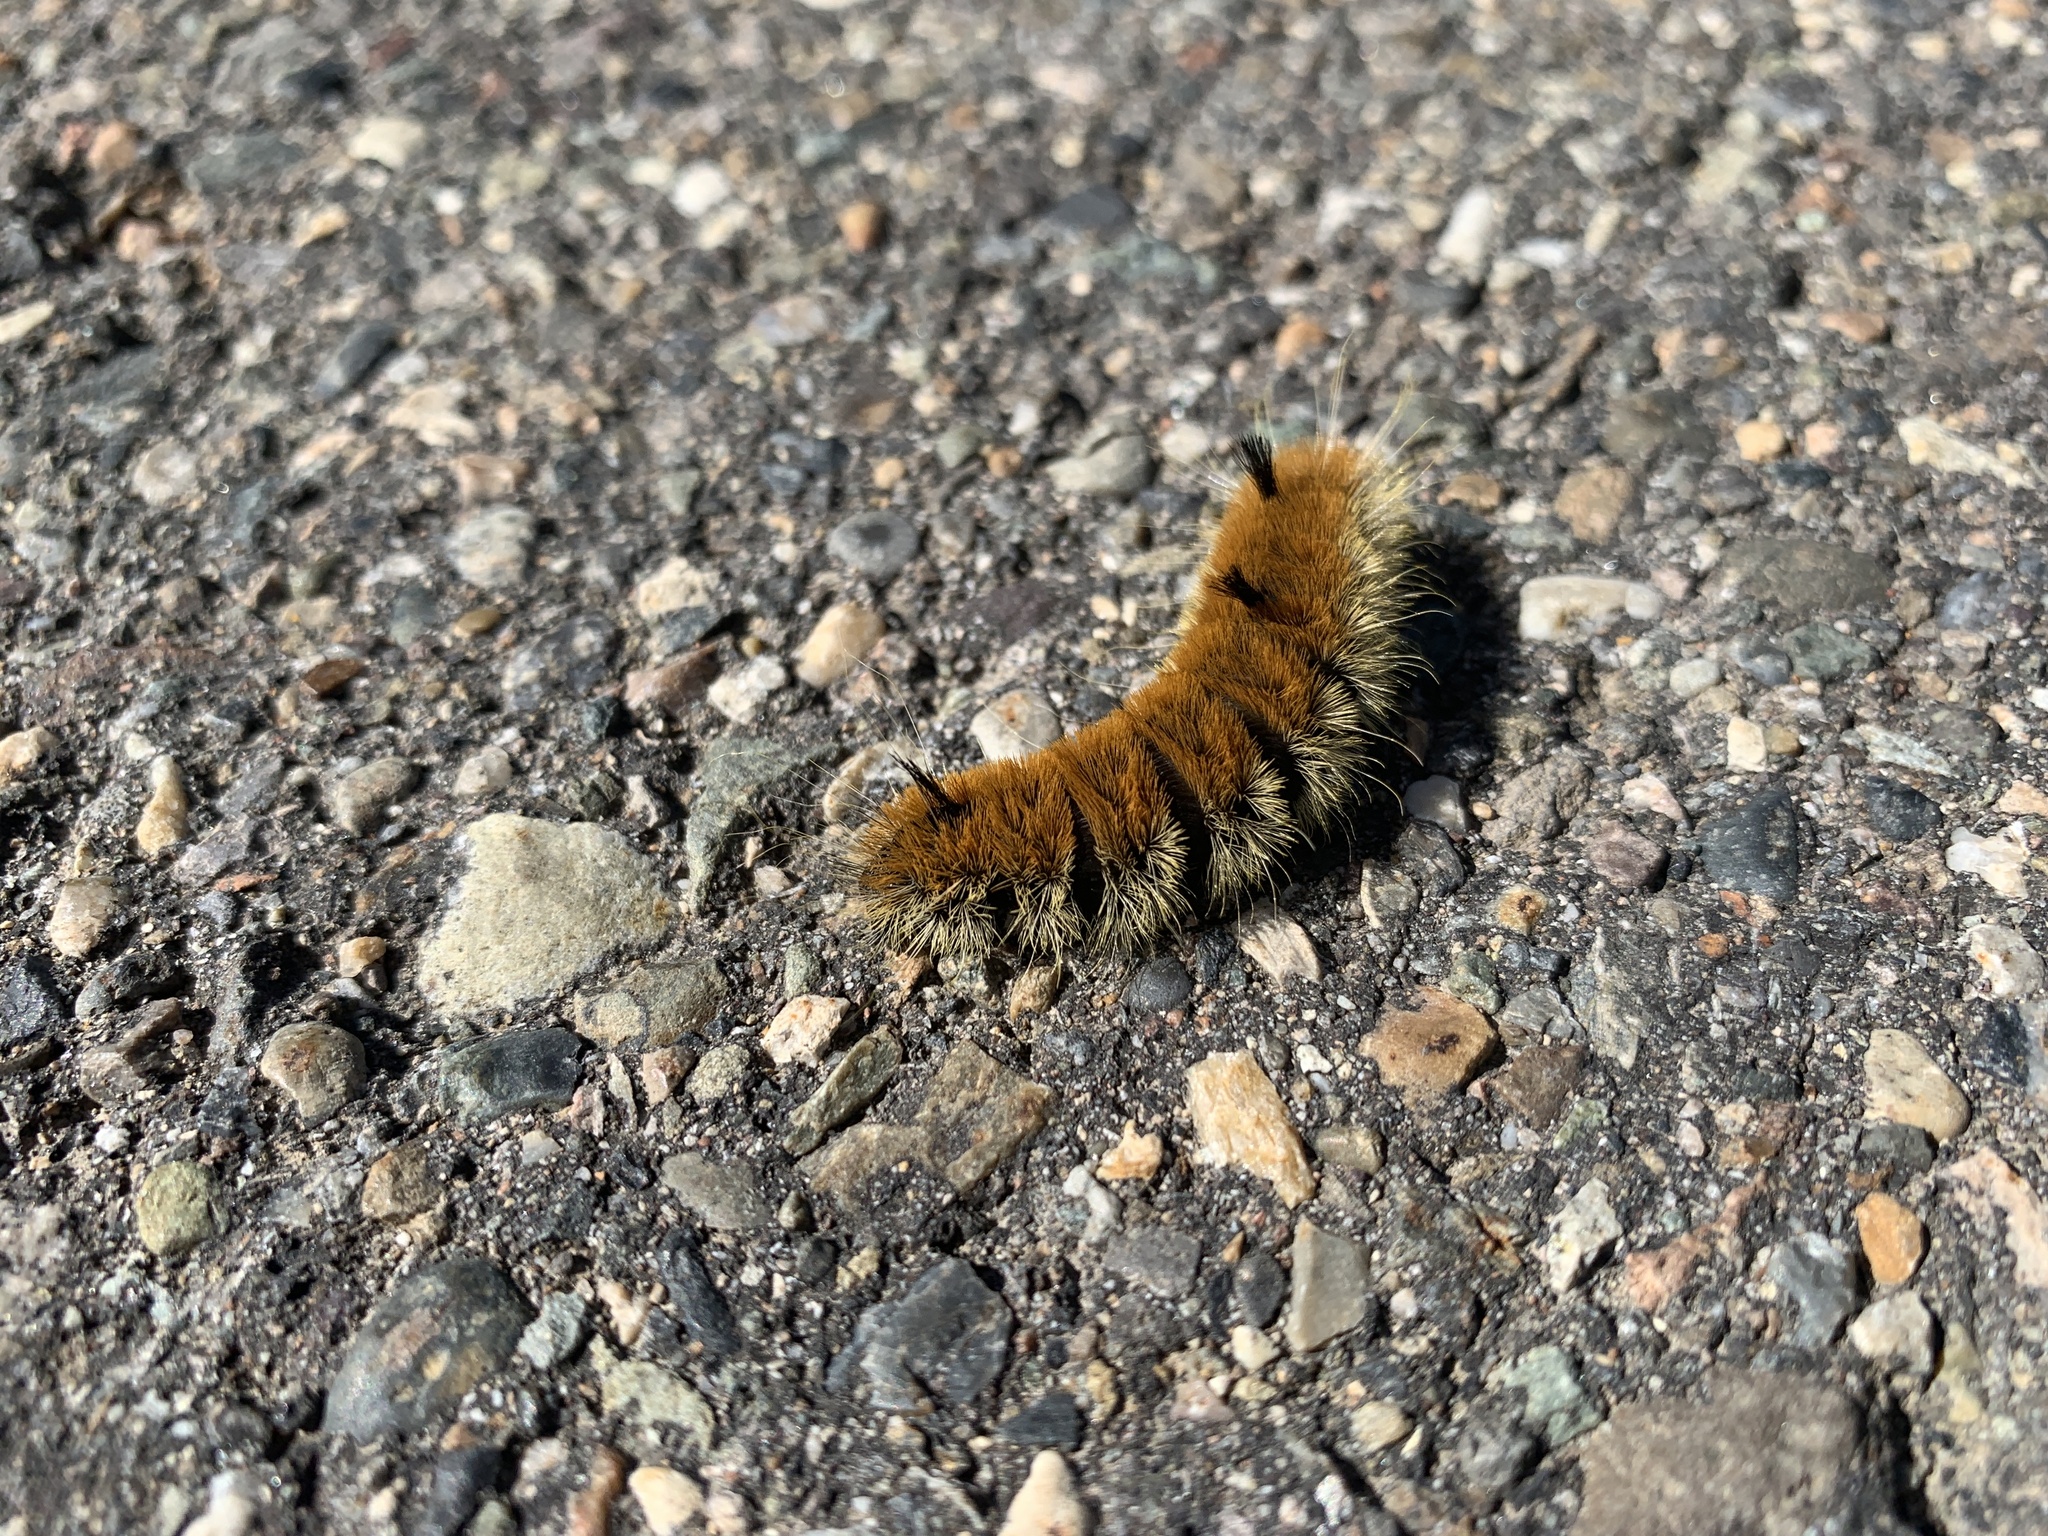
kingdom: Animalia
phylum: Arthropoda
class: Insecta
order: Lepidoptera
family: Noctuidae
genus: Acronicta
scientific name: Acronicta insita
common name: Large gray dagger
